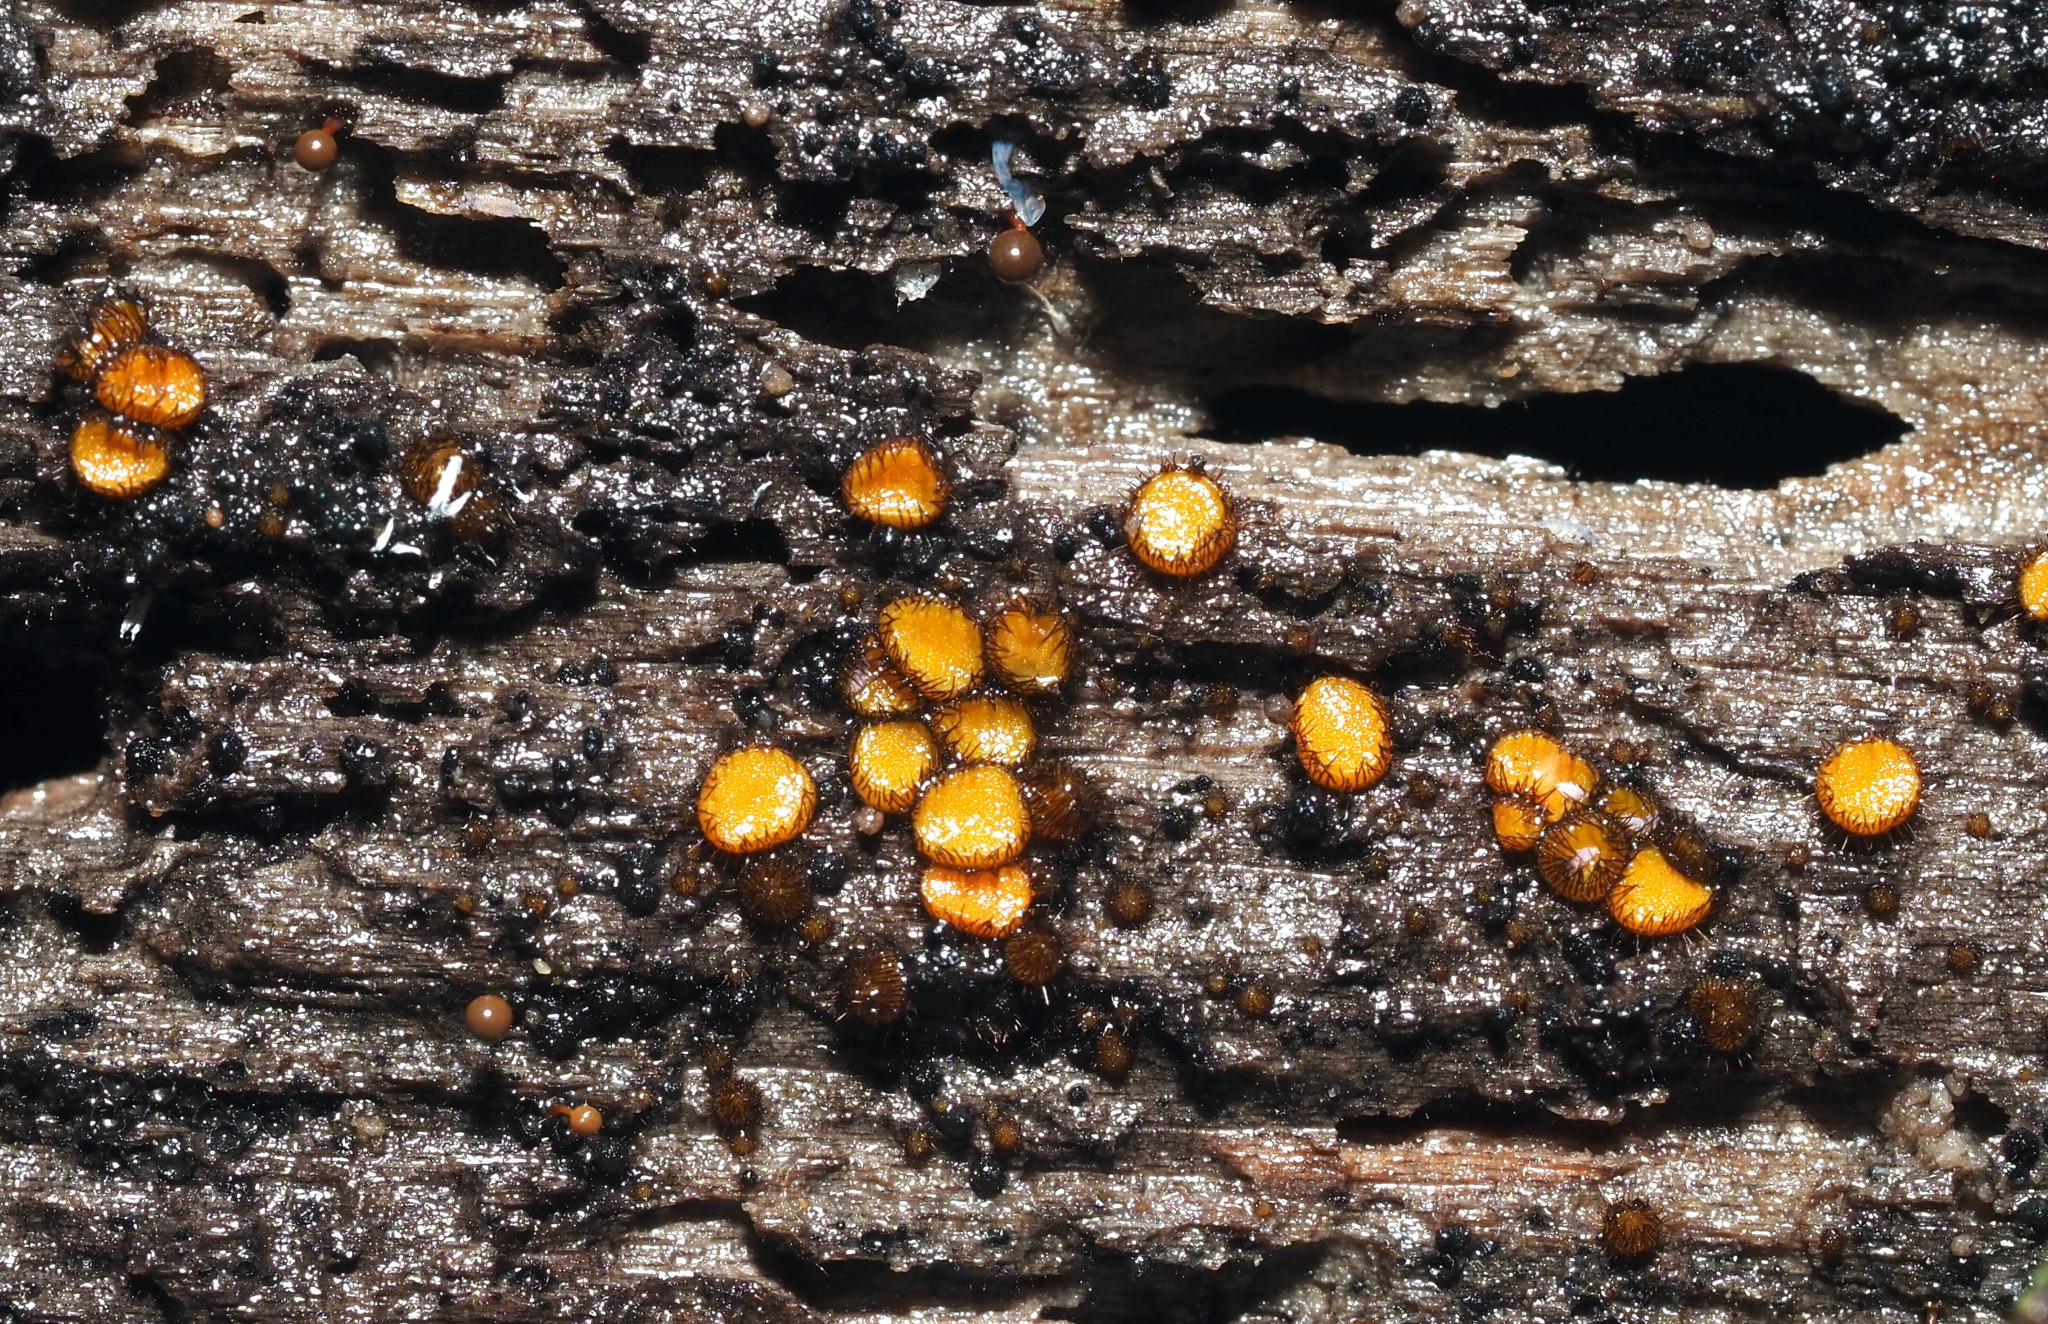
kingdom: Fungi
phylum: Ascomycota
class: Pezizomycetes
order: Pezizales
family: Pyronemataceae
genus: Scutellinia
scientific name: Scutellinia setosa
